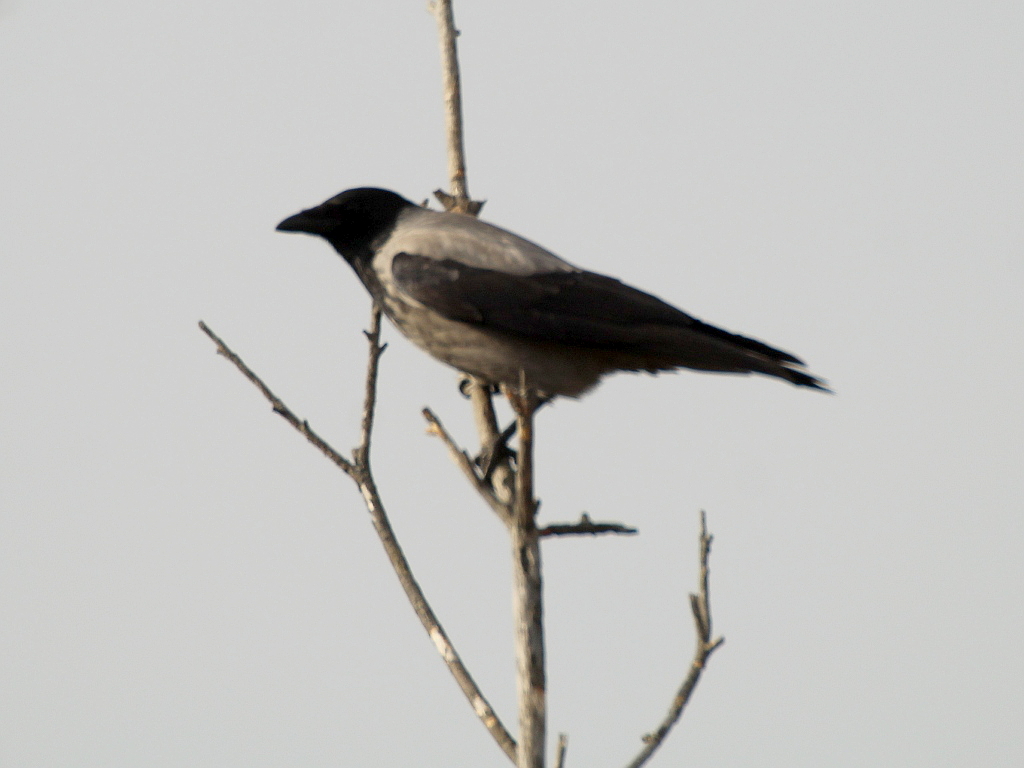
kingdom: Animalia
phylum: Chordata
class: Aves
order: Passeriformes
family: Corvidae
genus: Corvus
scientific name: Corvus cornix
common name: Hooded crow
